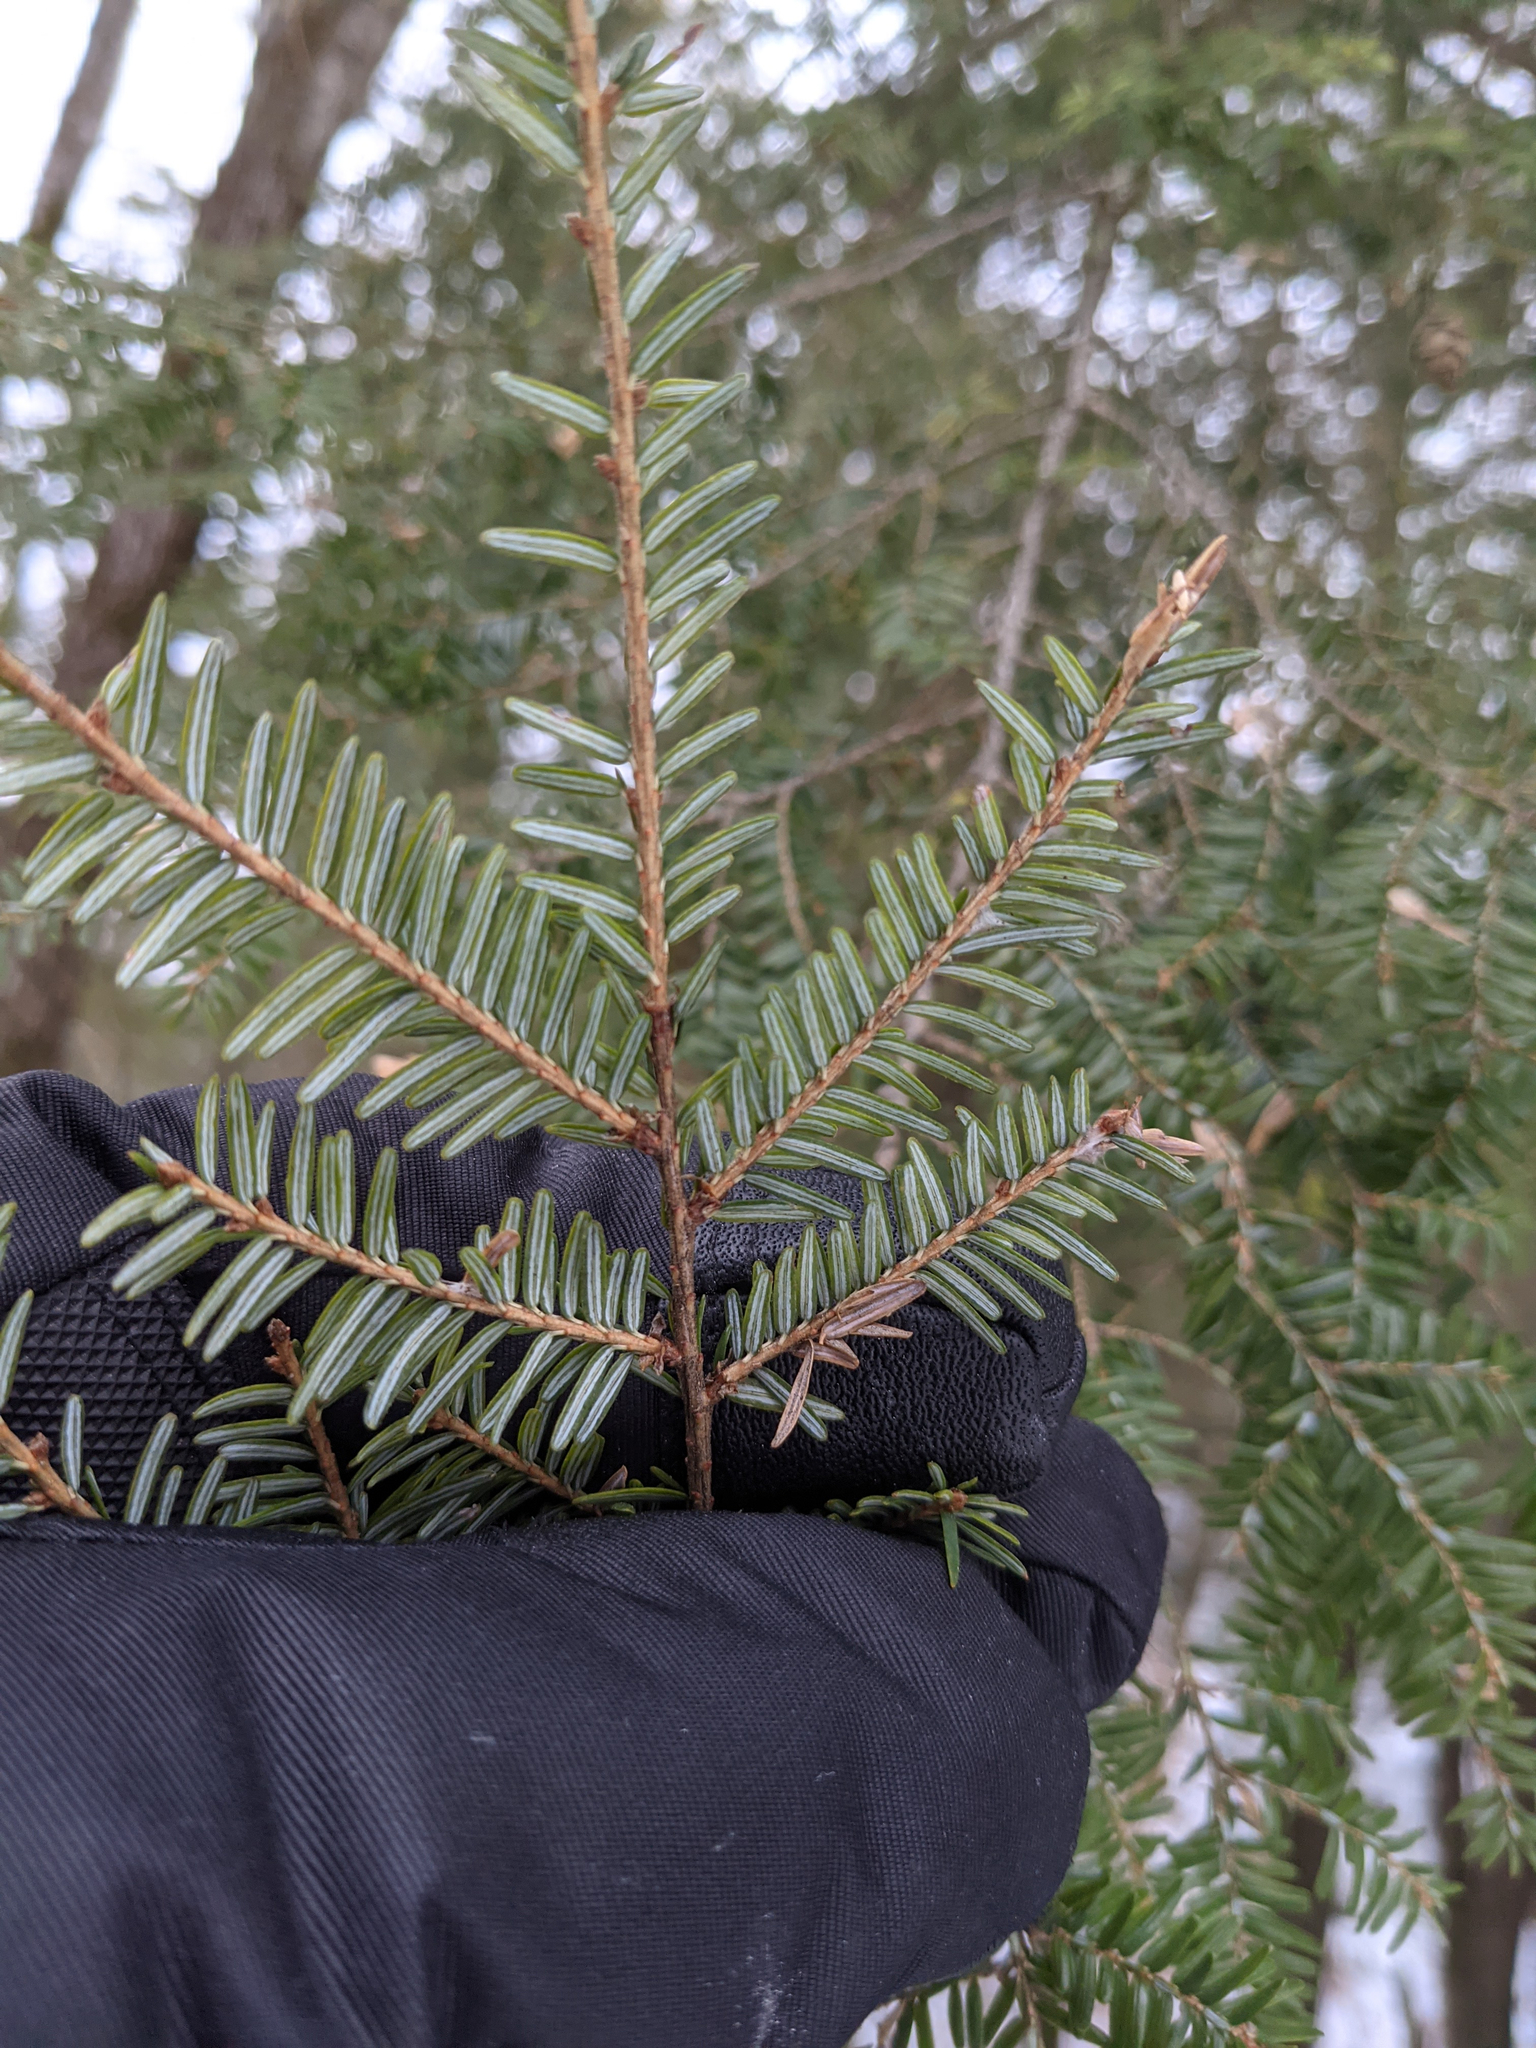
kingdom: Plantae
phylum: Tracheophyta
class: Pinopsida
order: Pinales
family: Pinaceae
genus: Tsuga
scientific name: Tsuga canadensis
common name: Eastern hemlock
